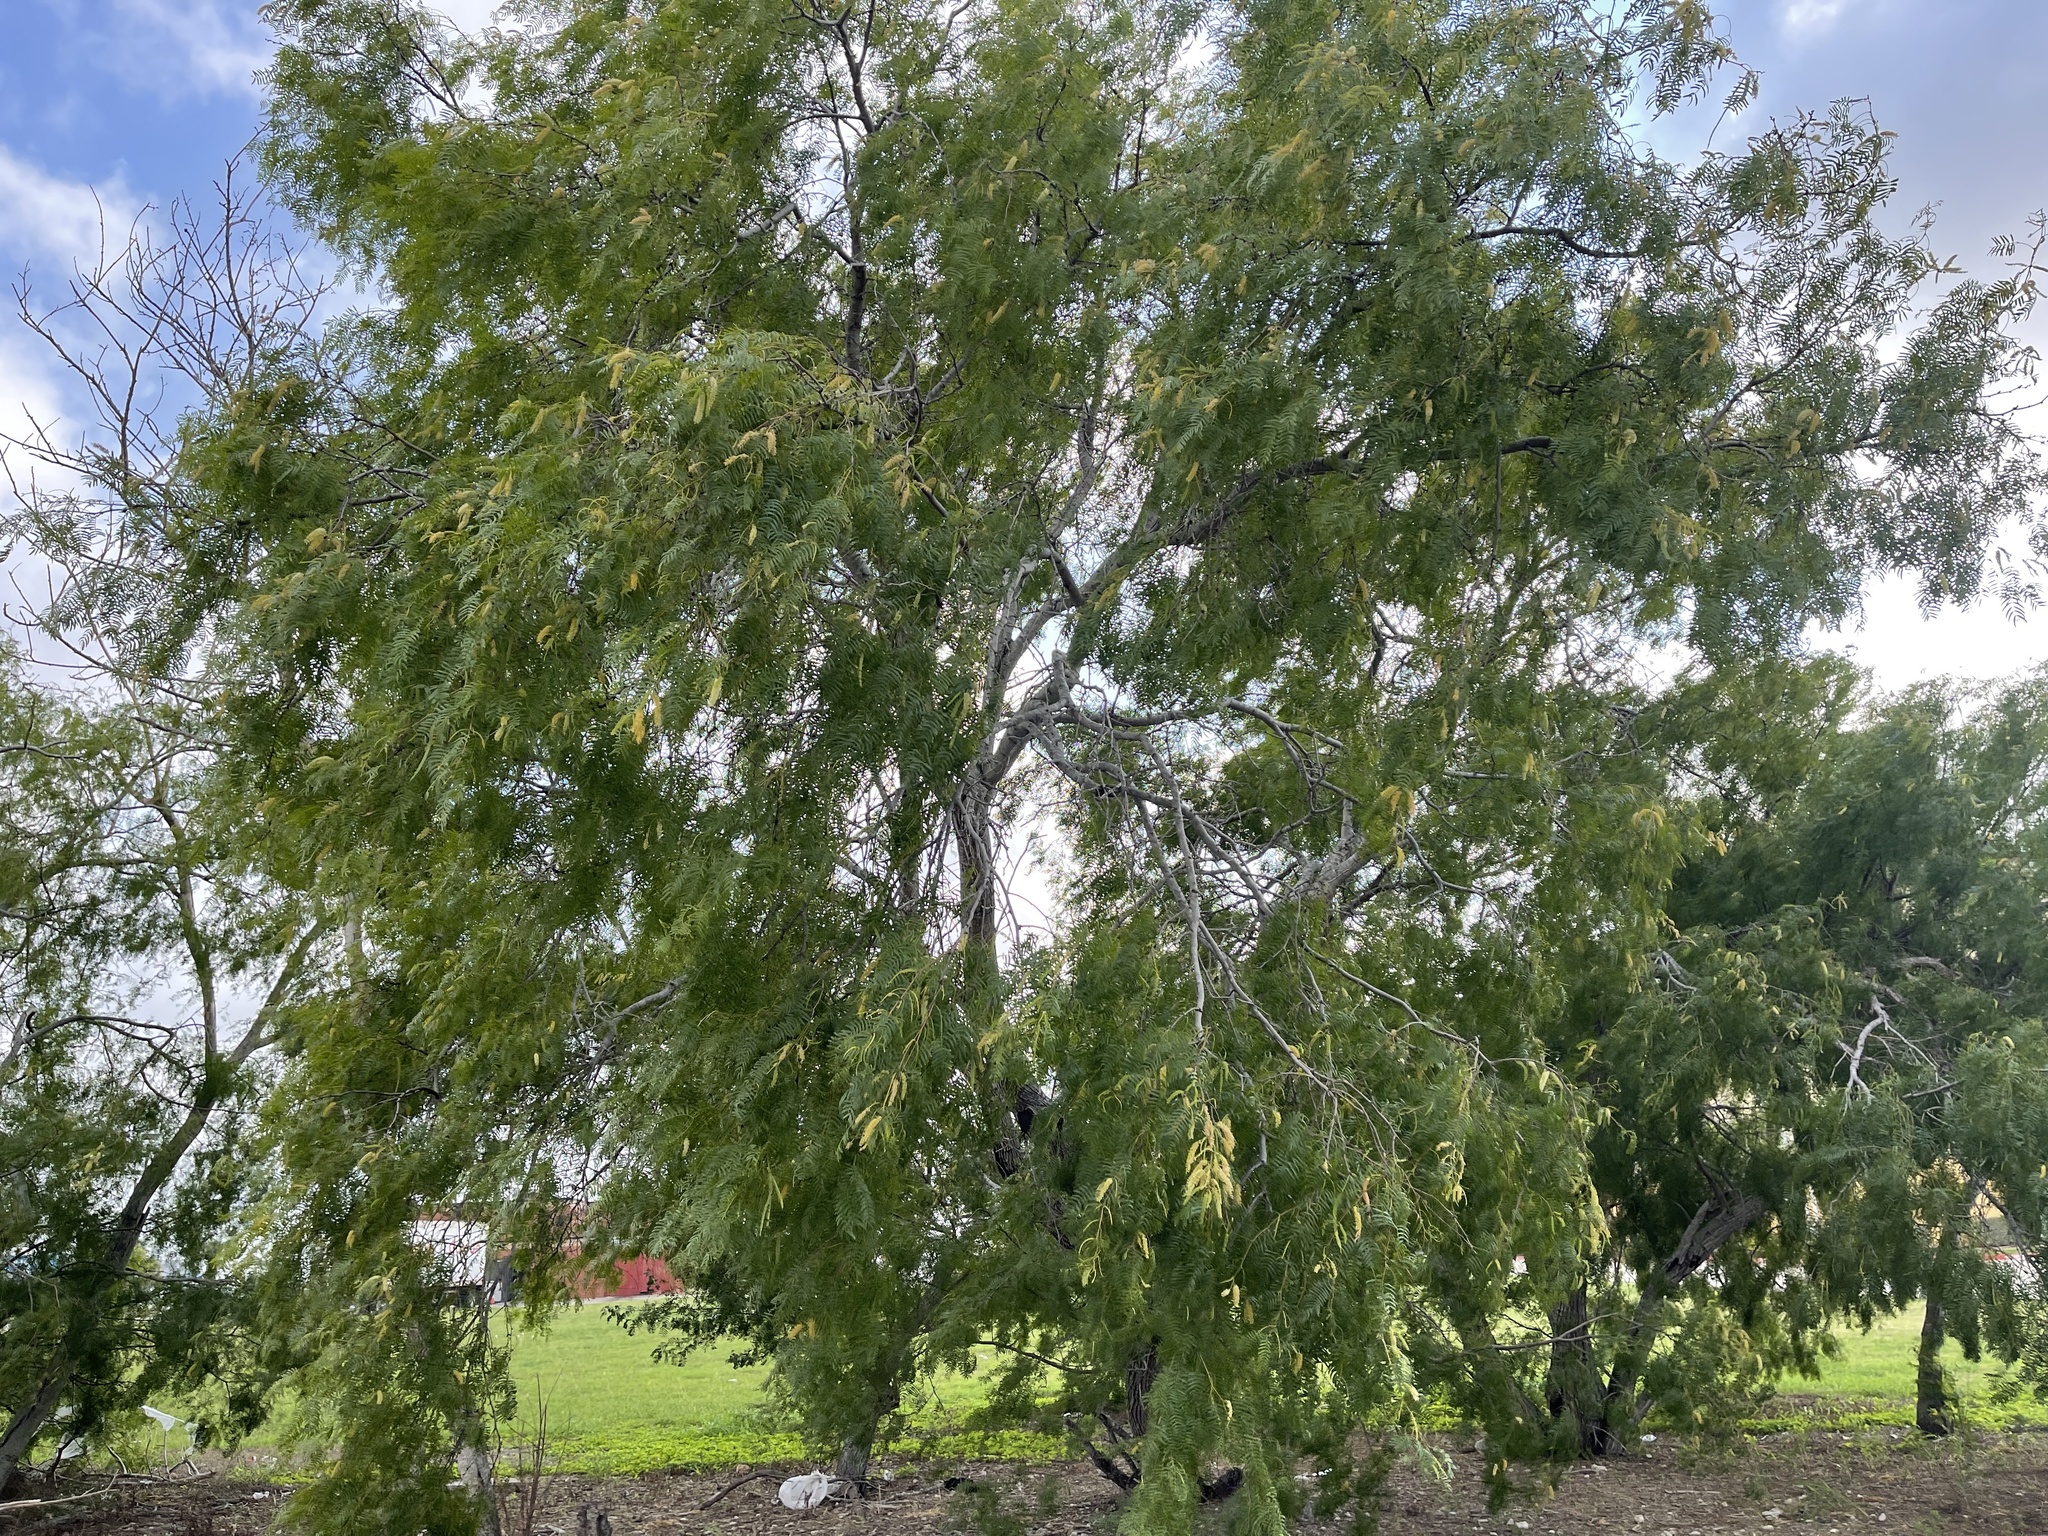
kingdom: Plantae
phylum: Tracheophyta
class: Magnoliopsida
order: Fabales
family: Fabaceae
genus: Prosopis
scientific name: Prosopis glandulosa
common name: Honey mesquite
